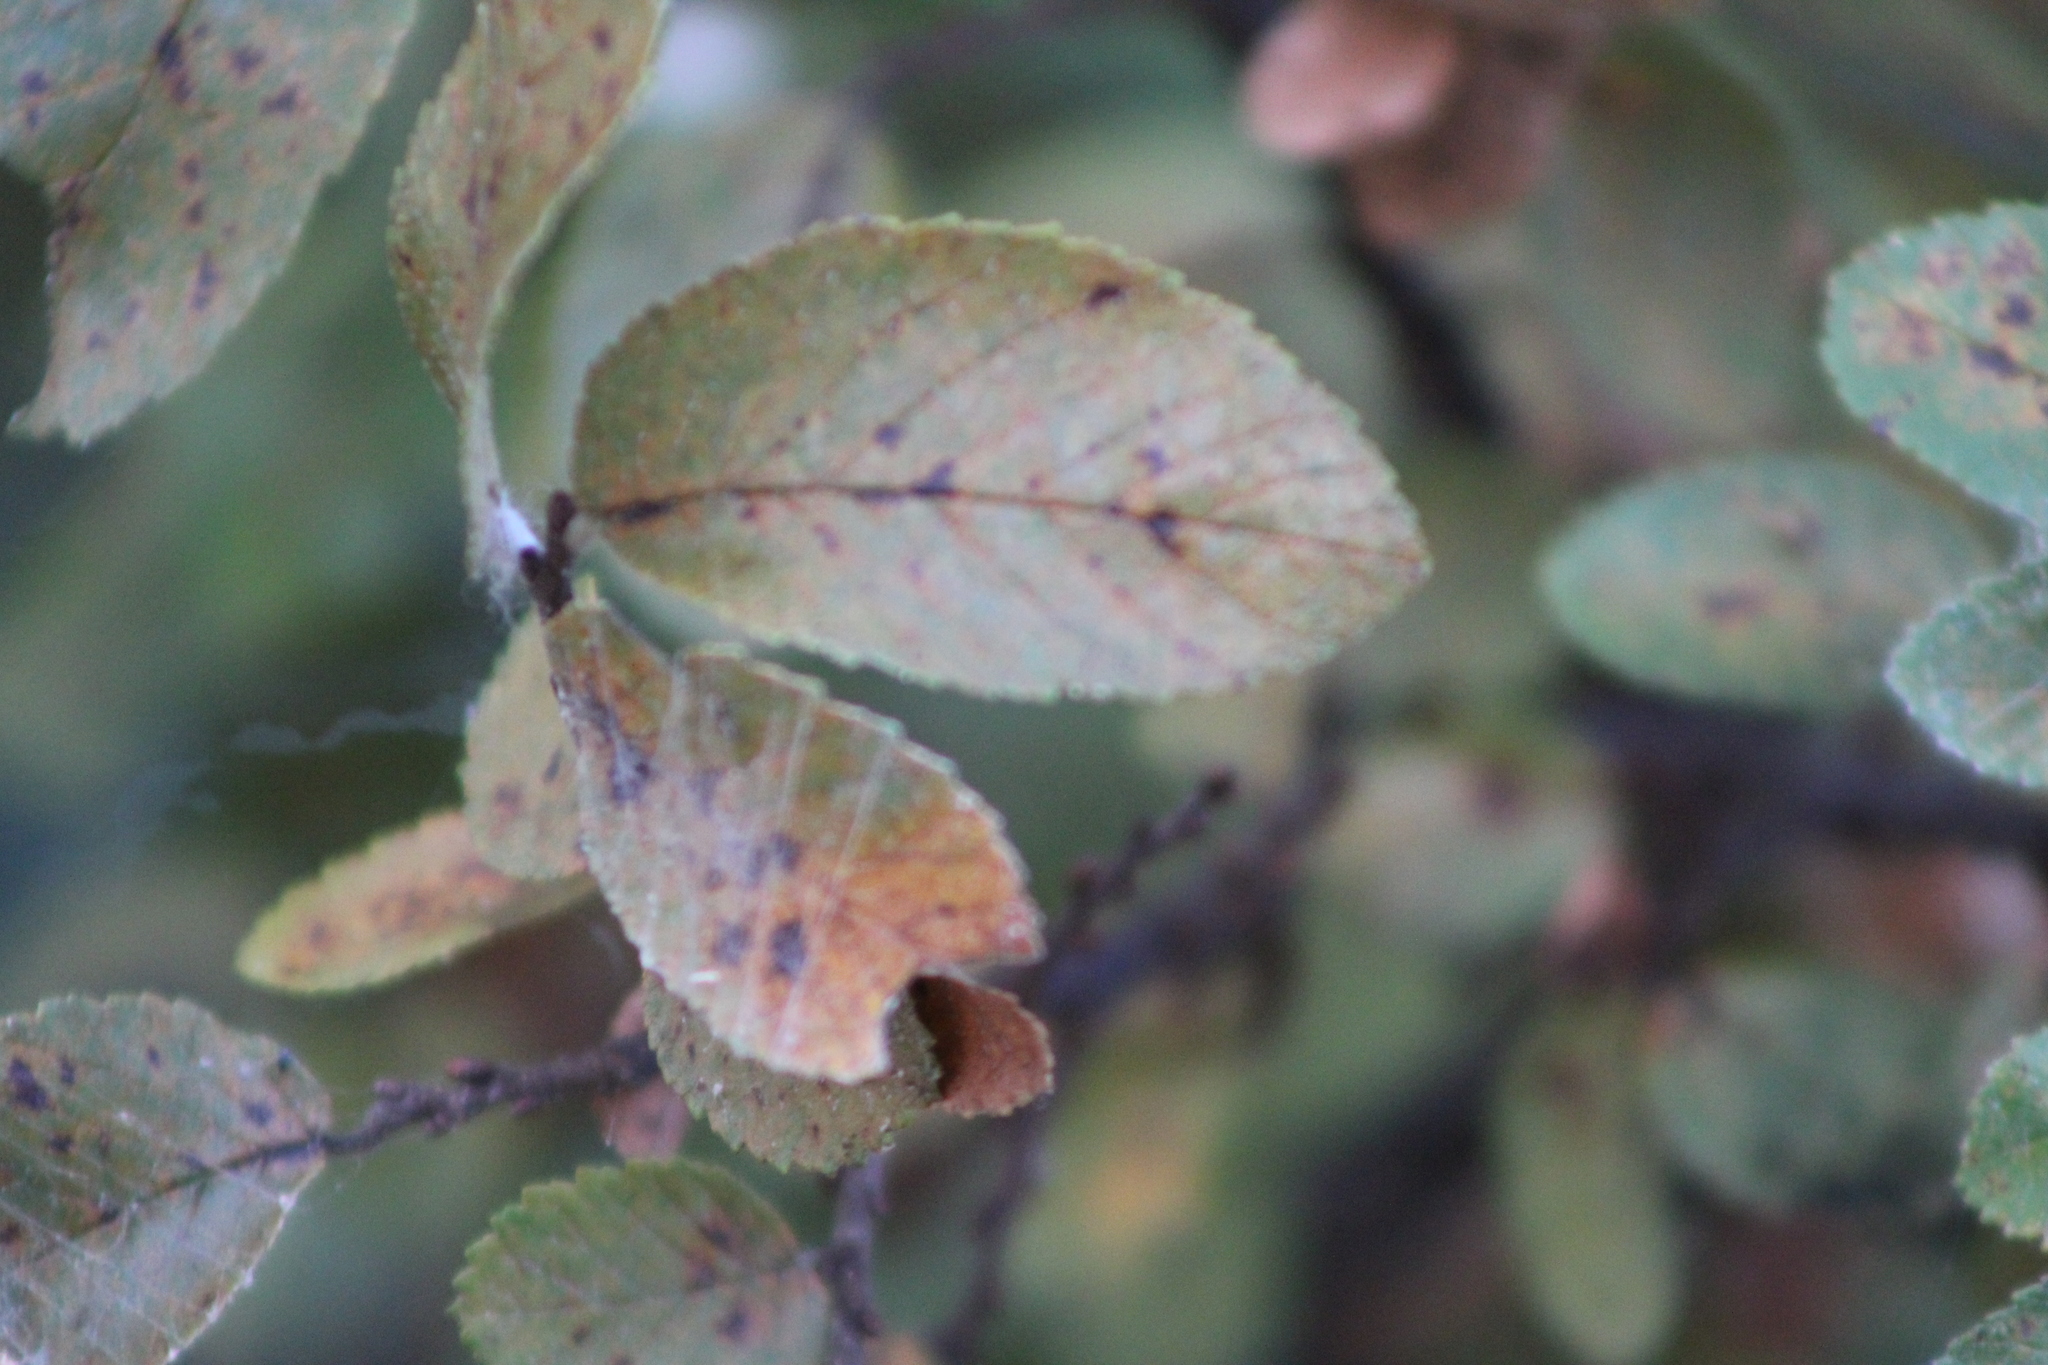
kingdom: Plantae
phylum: Tracheophyta
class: Magnoliopsida
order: Rosales
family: Ulmaceae
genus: Ulmus
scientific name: Ulmus crassifolia
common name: Basket elm
